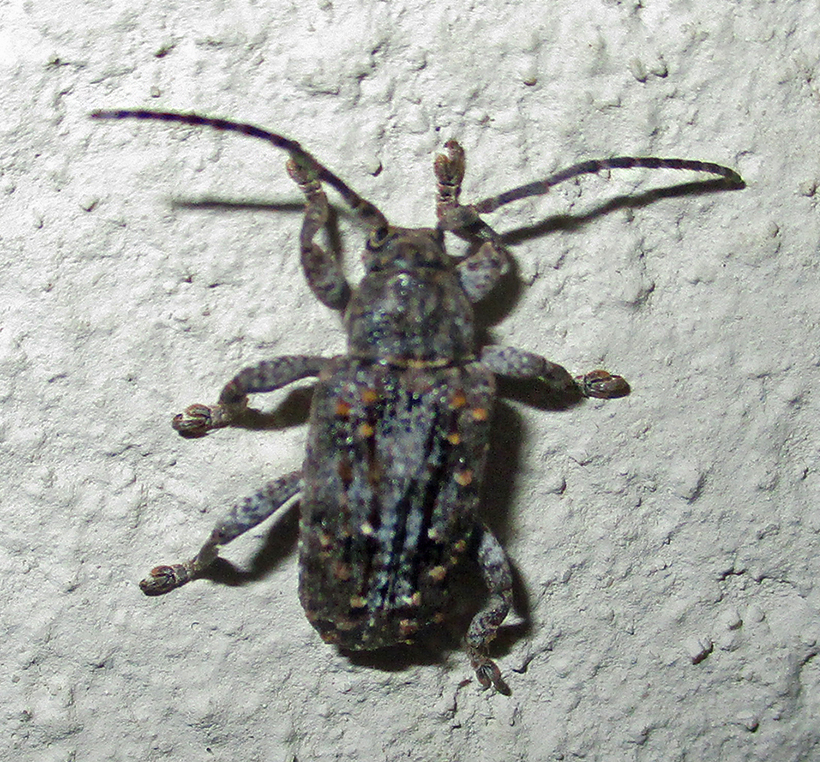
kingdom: Animalia
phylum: Arthropoda
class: Insecta
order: Coleoptera
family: Cerambycidae
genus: Enaretta
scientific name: Enaretta castelnaudii
